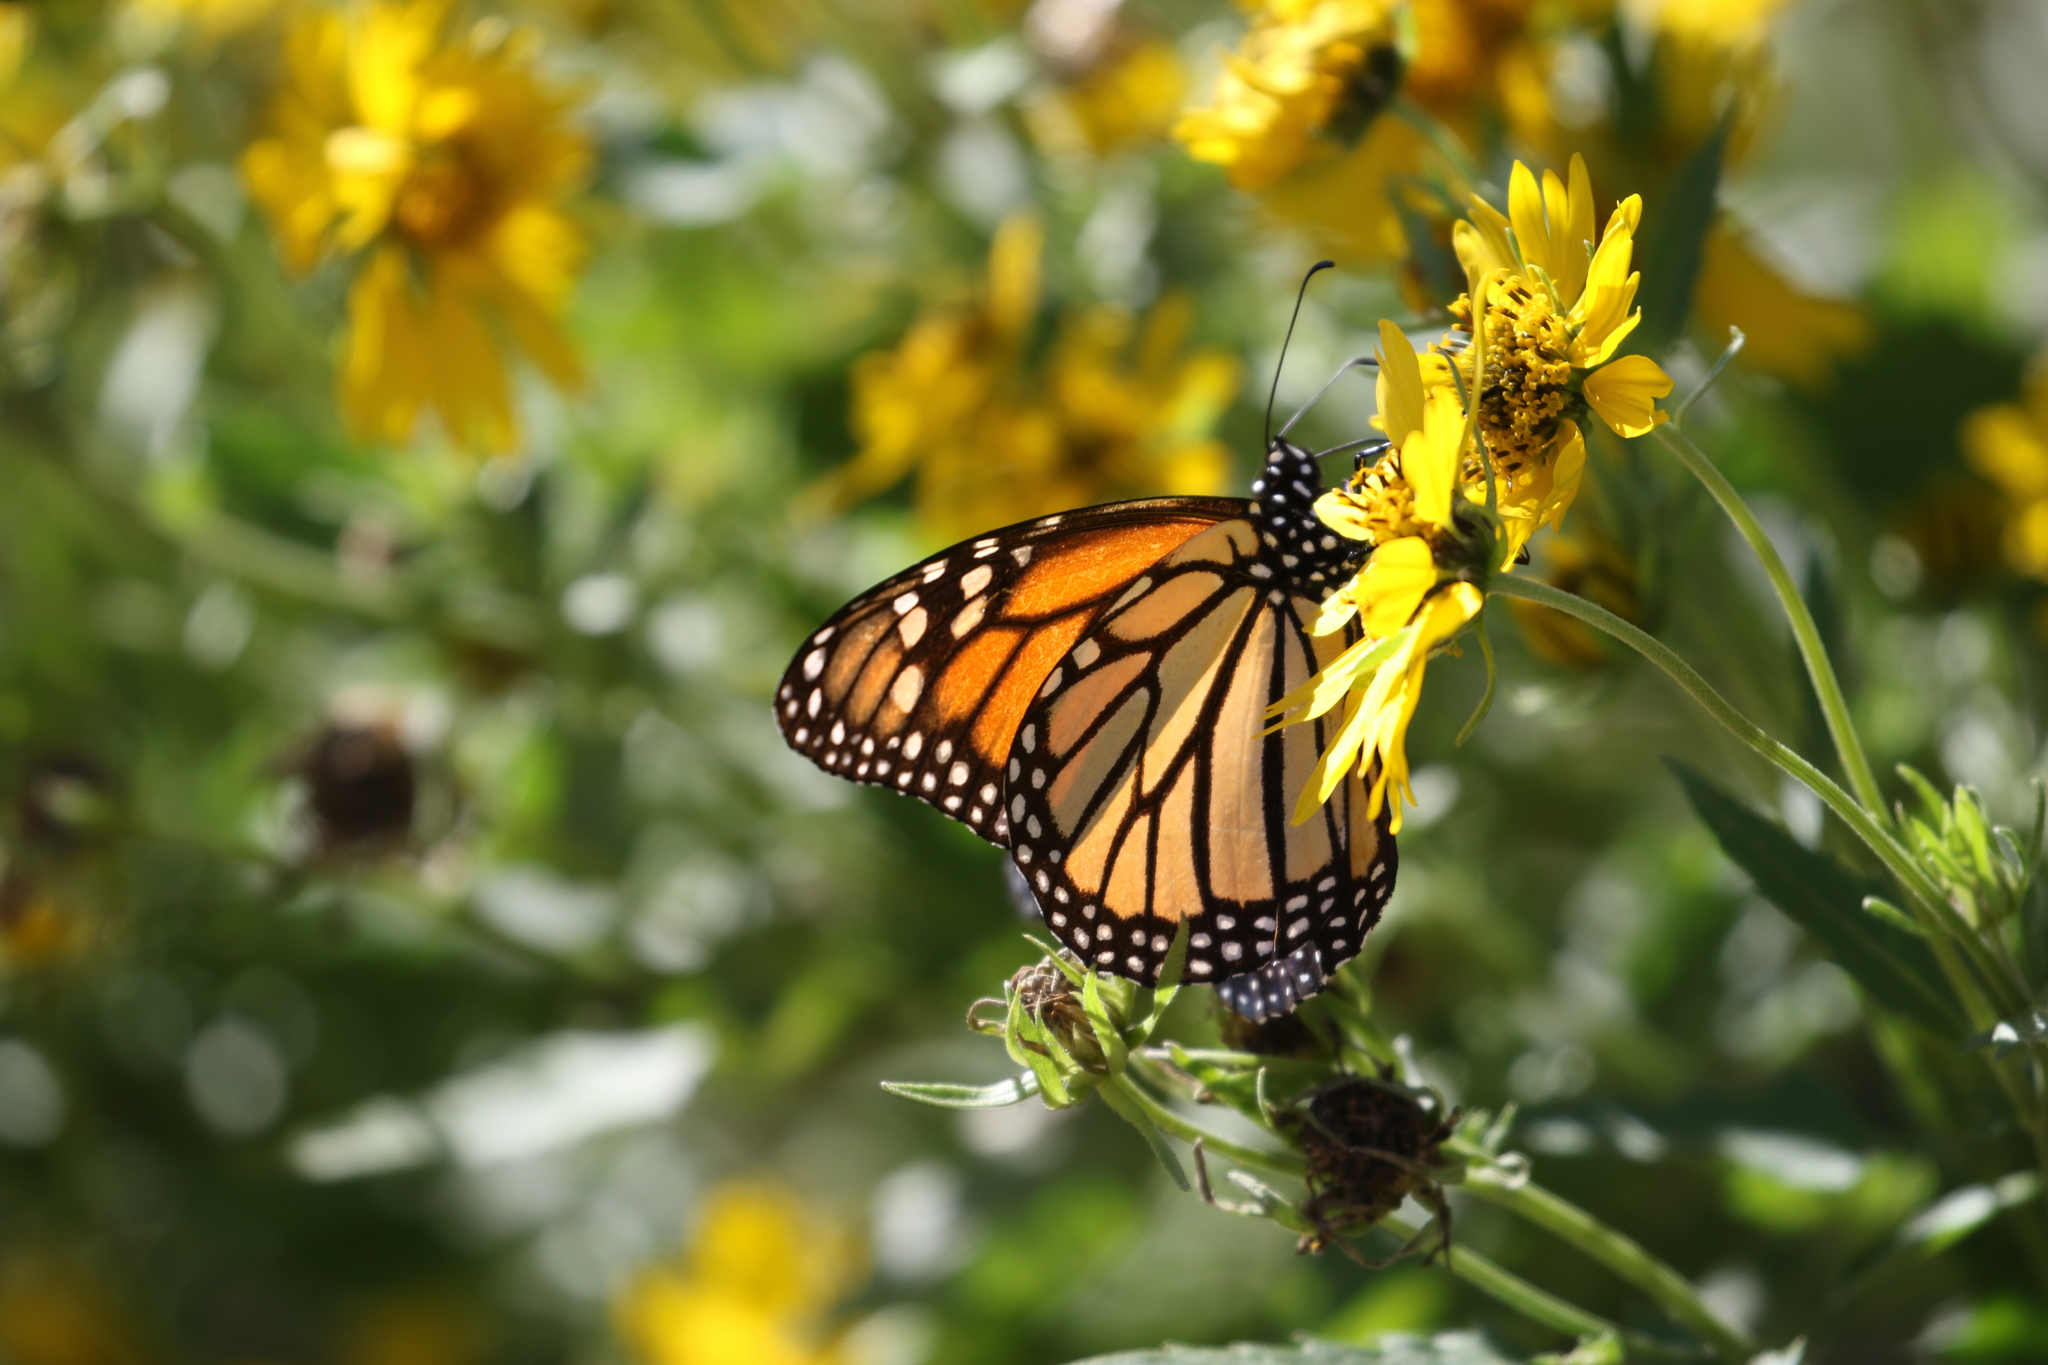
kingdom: Animalia
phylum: Arthropoda
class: Insecta
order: Lepidoptera
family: Nymphalidae
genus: Danaus
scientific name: Danaus plexippus
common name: Monarch
